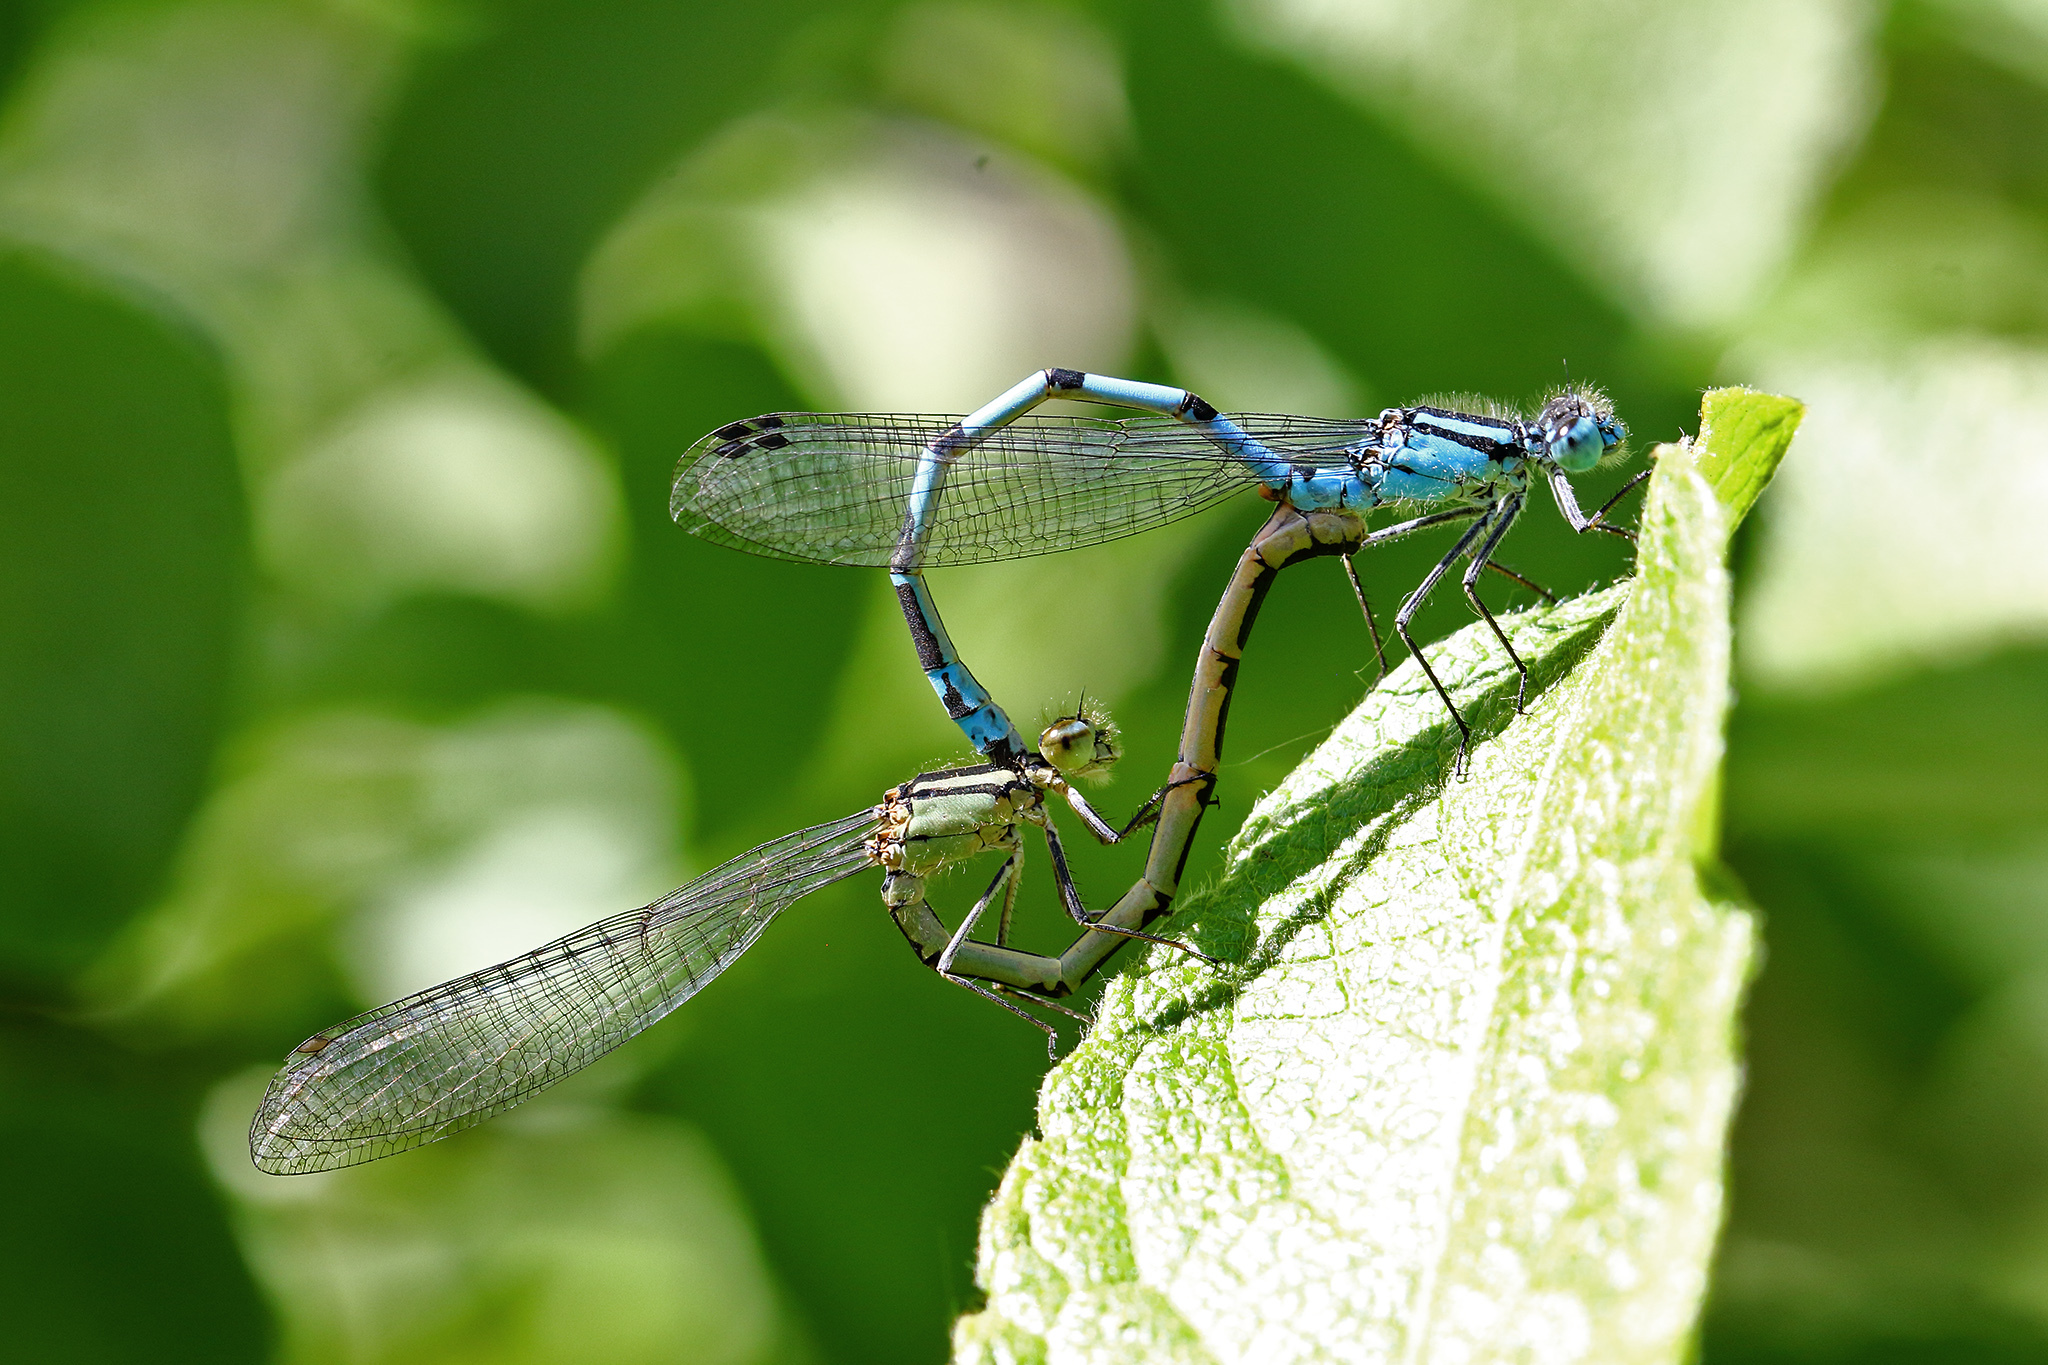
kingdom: Animalia
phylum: Arthropoda
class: Insecta
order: Odonata
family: Coenagrionidae
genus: Enallagma
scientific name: Enallagma cyathigerum
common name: Common blue damselfly
